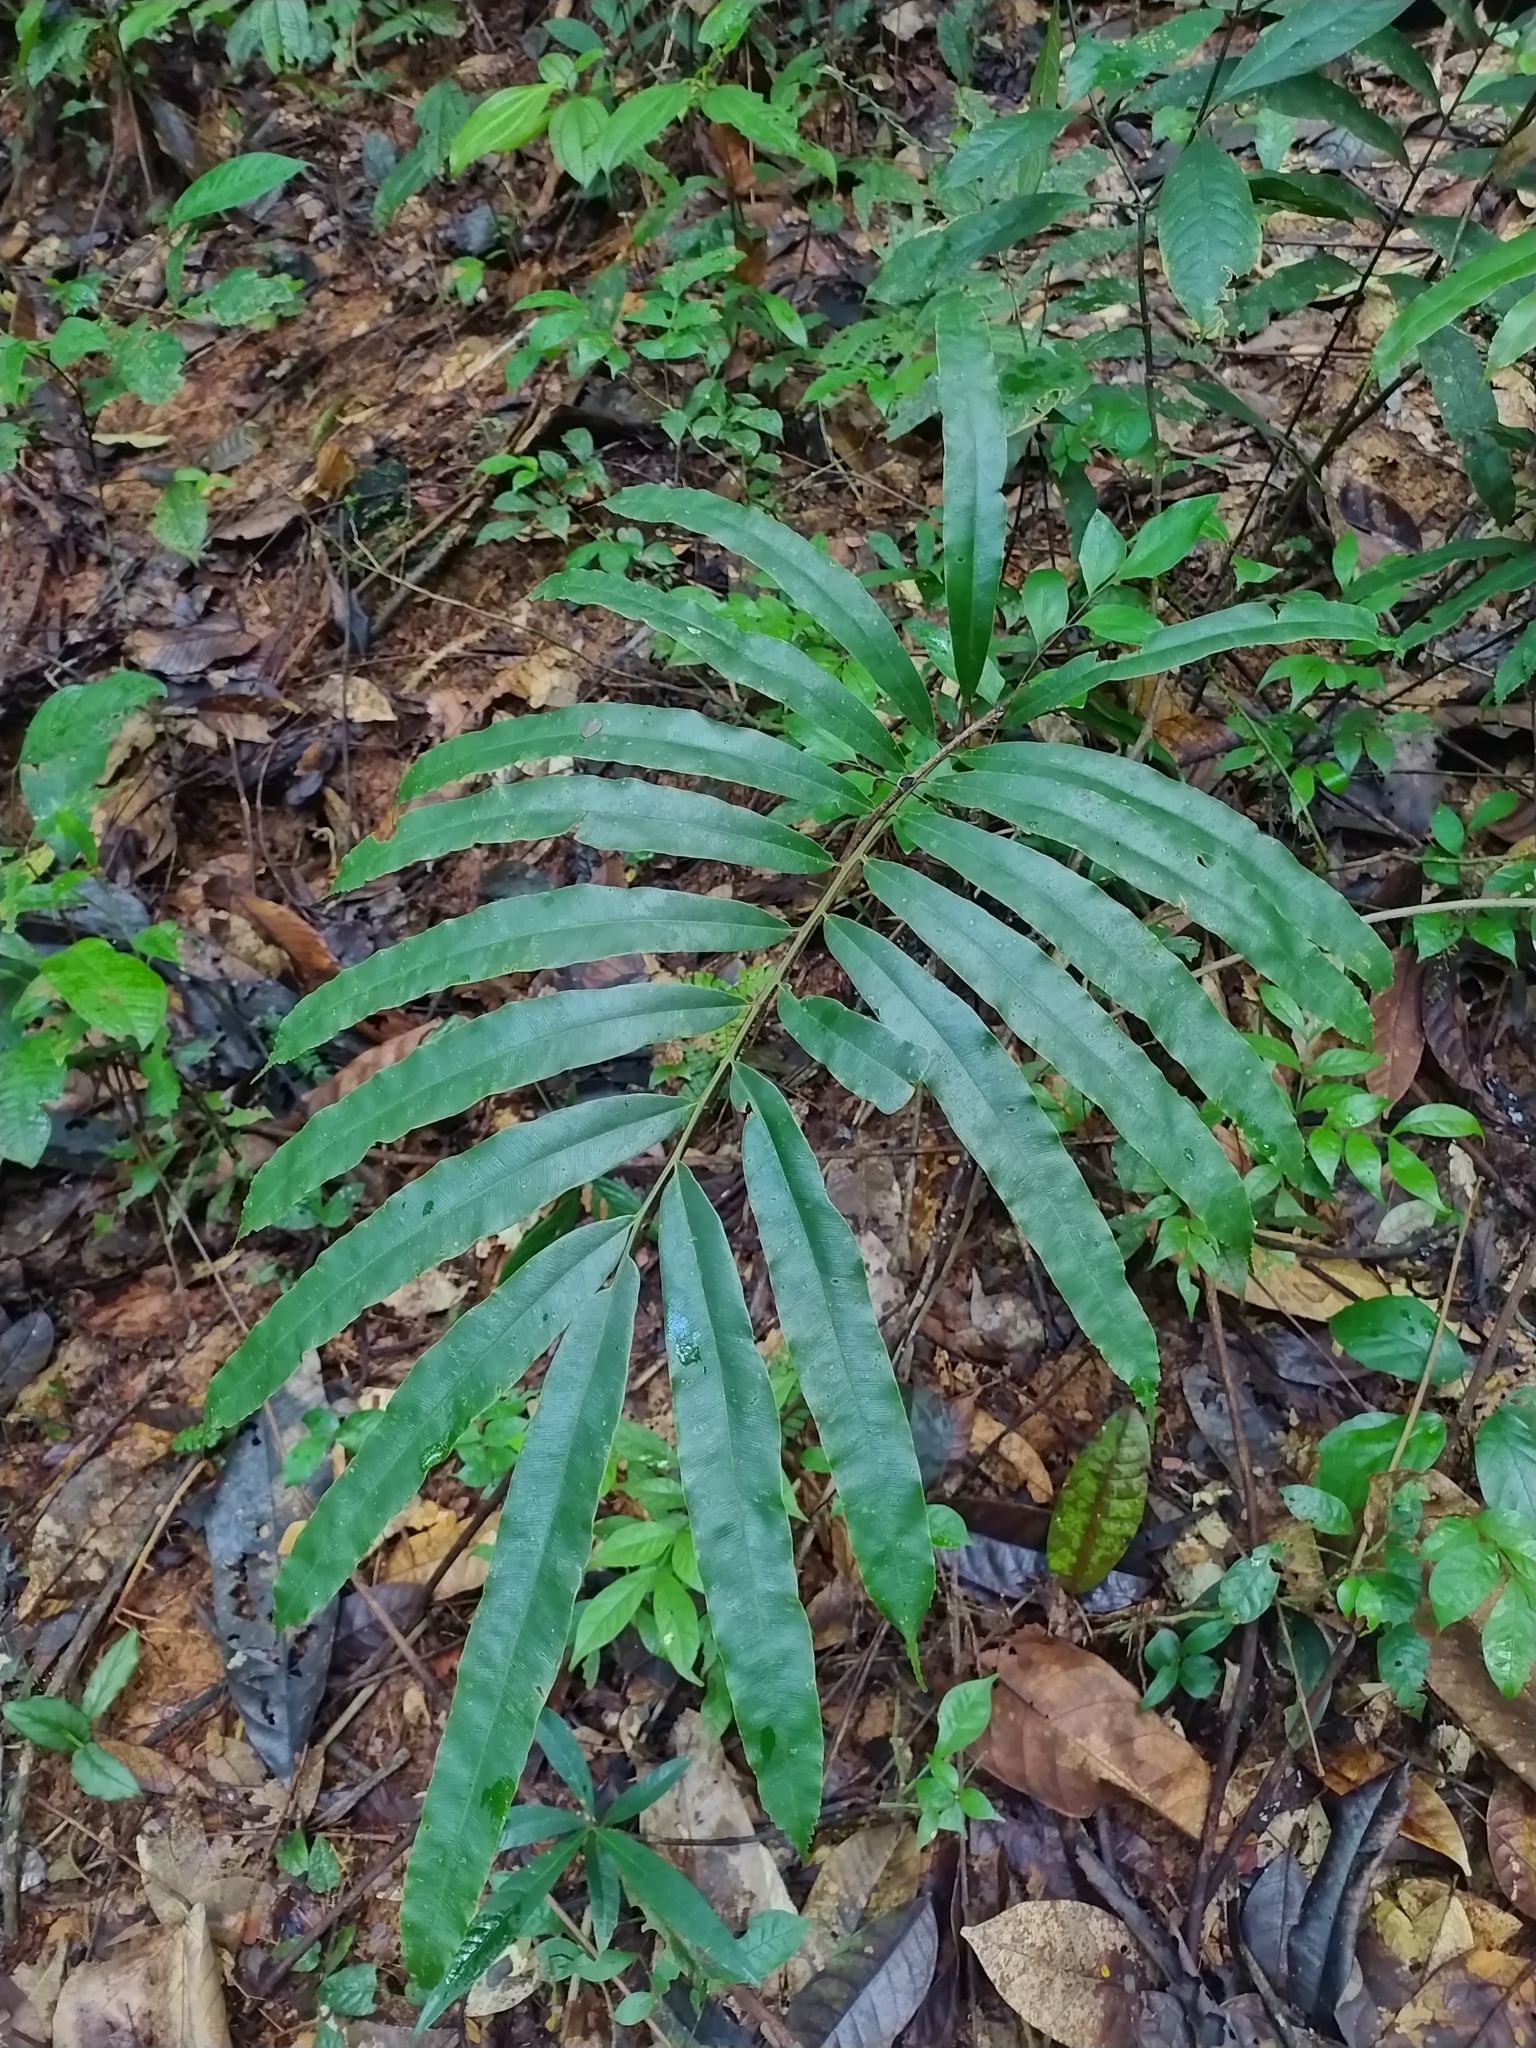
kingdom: Plantae
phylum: Tracheophyta
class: Polypodiopsida
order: Cyatheales
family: Metaxyaceae
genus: Metaxya
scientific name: Metaxya scalaris
